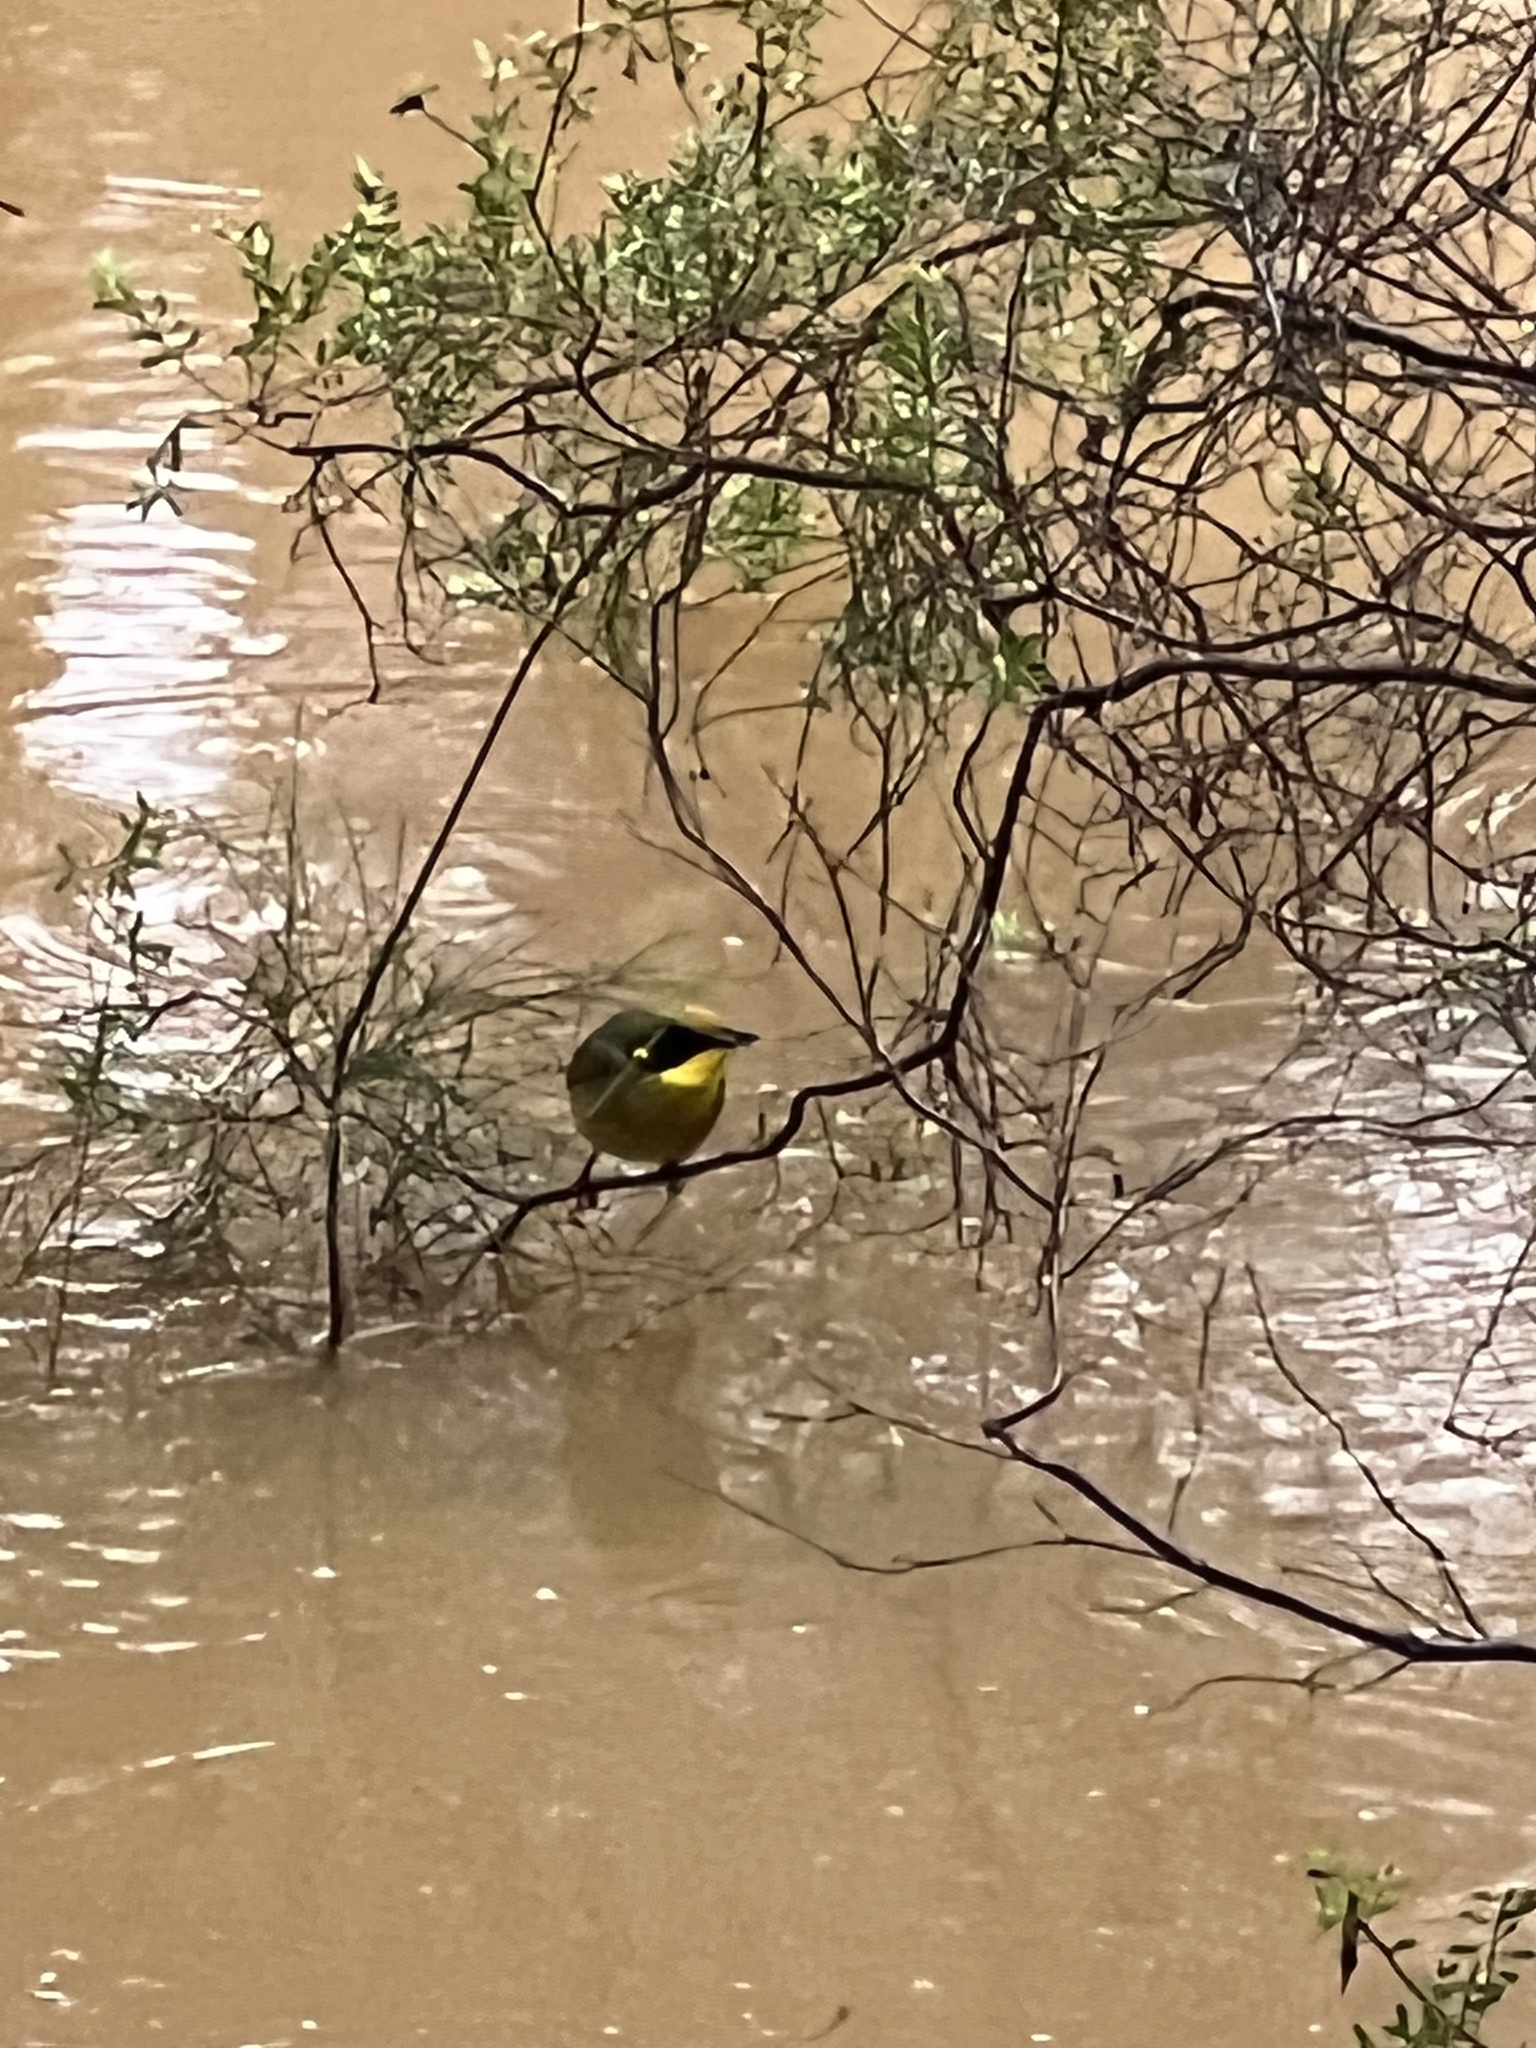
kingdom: Animalia
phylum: Chordata
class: Aves
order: Passeriformes
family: Meliphagidae
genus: Lichenostomus
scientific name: Lichenostomus melanops
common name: Yellow-tufted honeyeater
